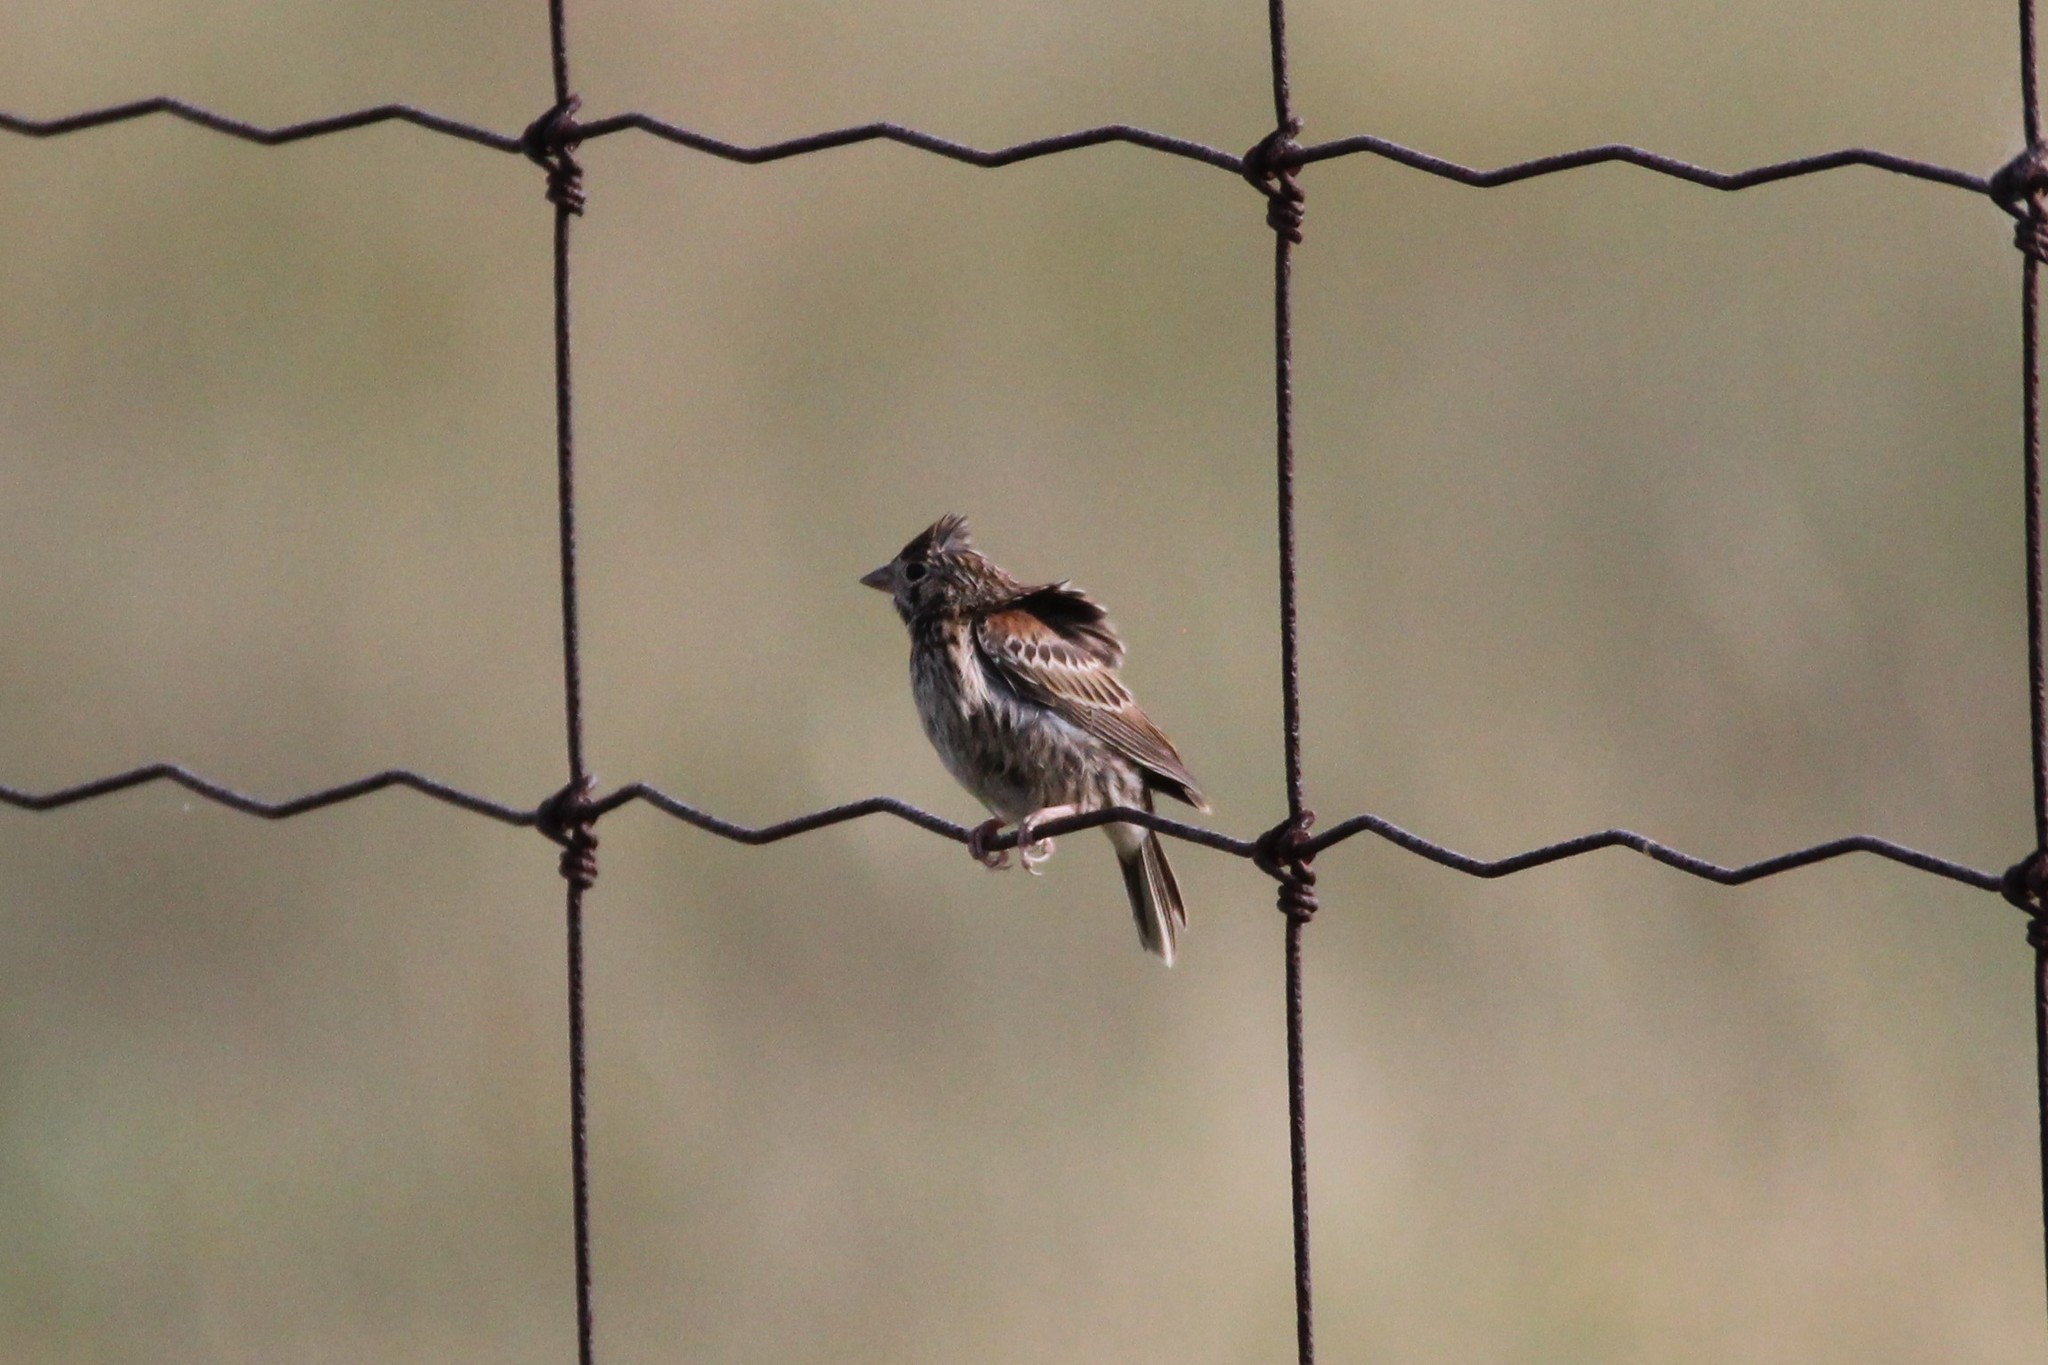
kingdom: Animalia
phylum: Chordata
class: Aves
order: Passeriformes
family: Passerellidae
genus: Pooecetes
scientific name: Pooecetes gramineus
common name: Vesper sparrow
